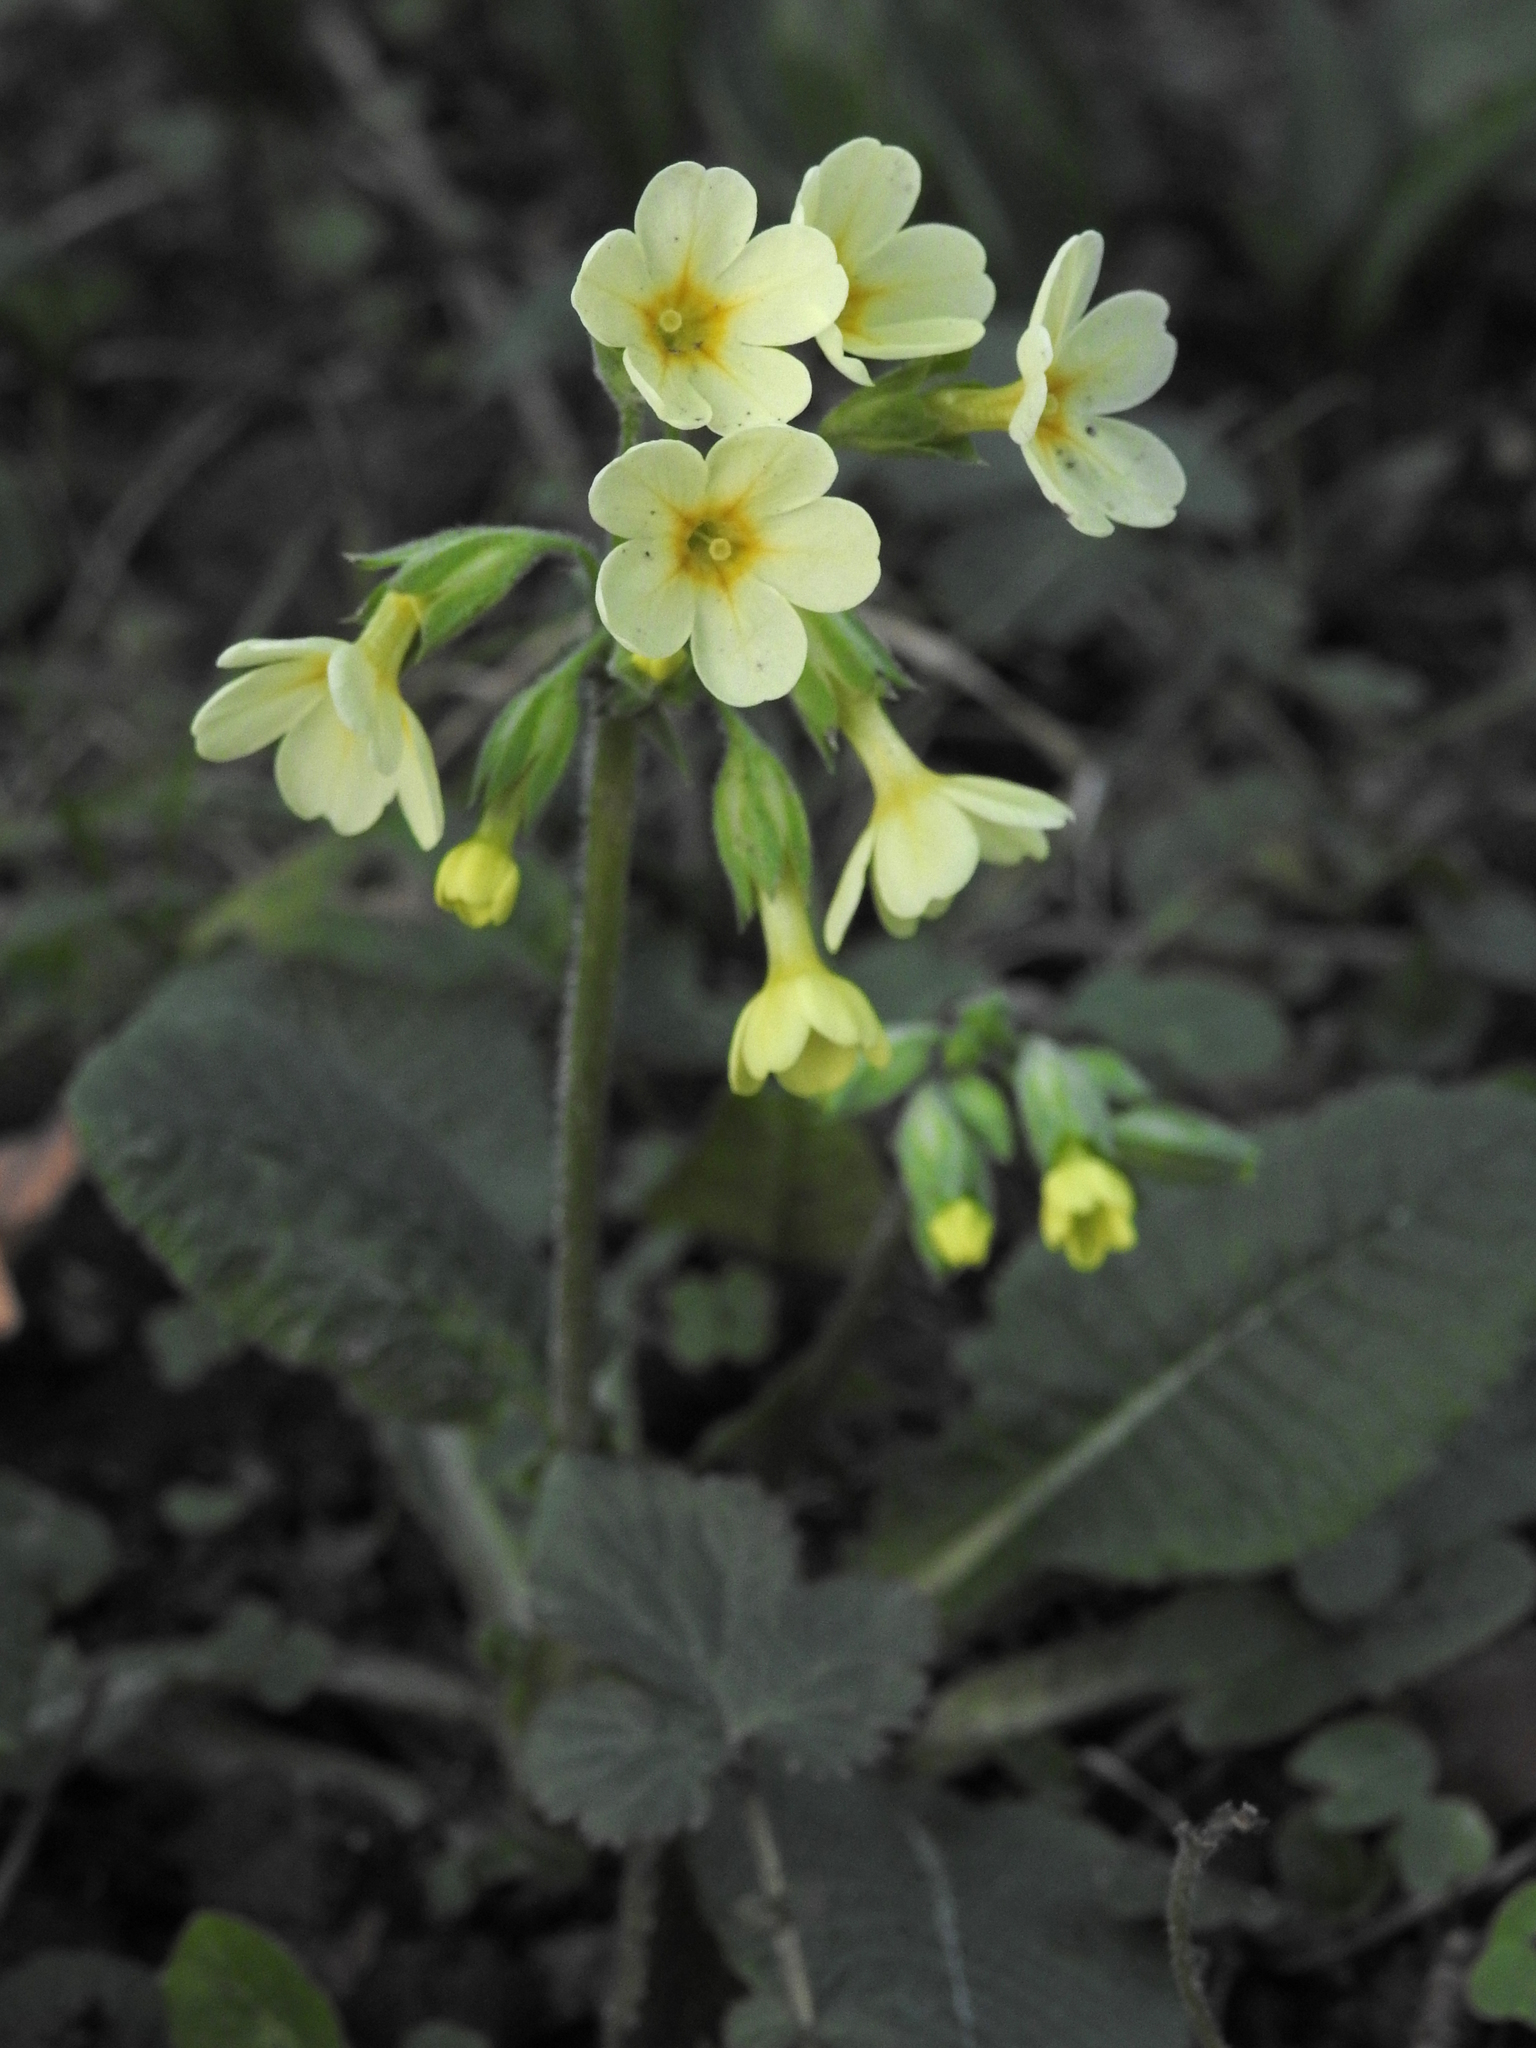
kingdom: Plantae
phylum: Tracheophyta
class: Magnoliopsida
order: Ericales
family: Primulaceae
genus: Primula
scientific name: Primula elatior
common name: Oxlip
